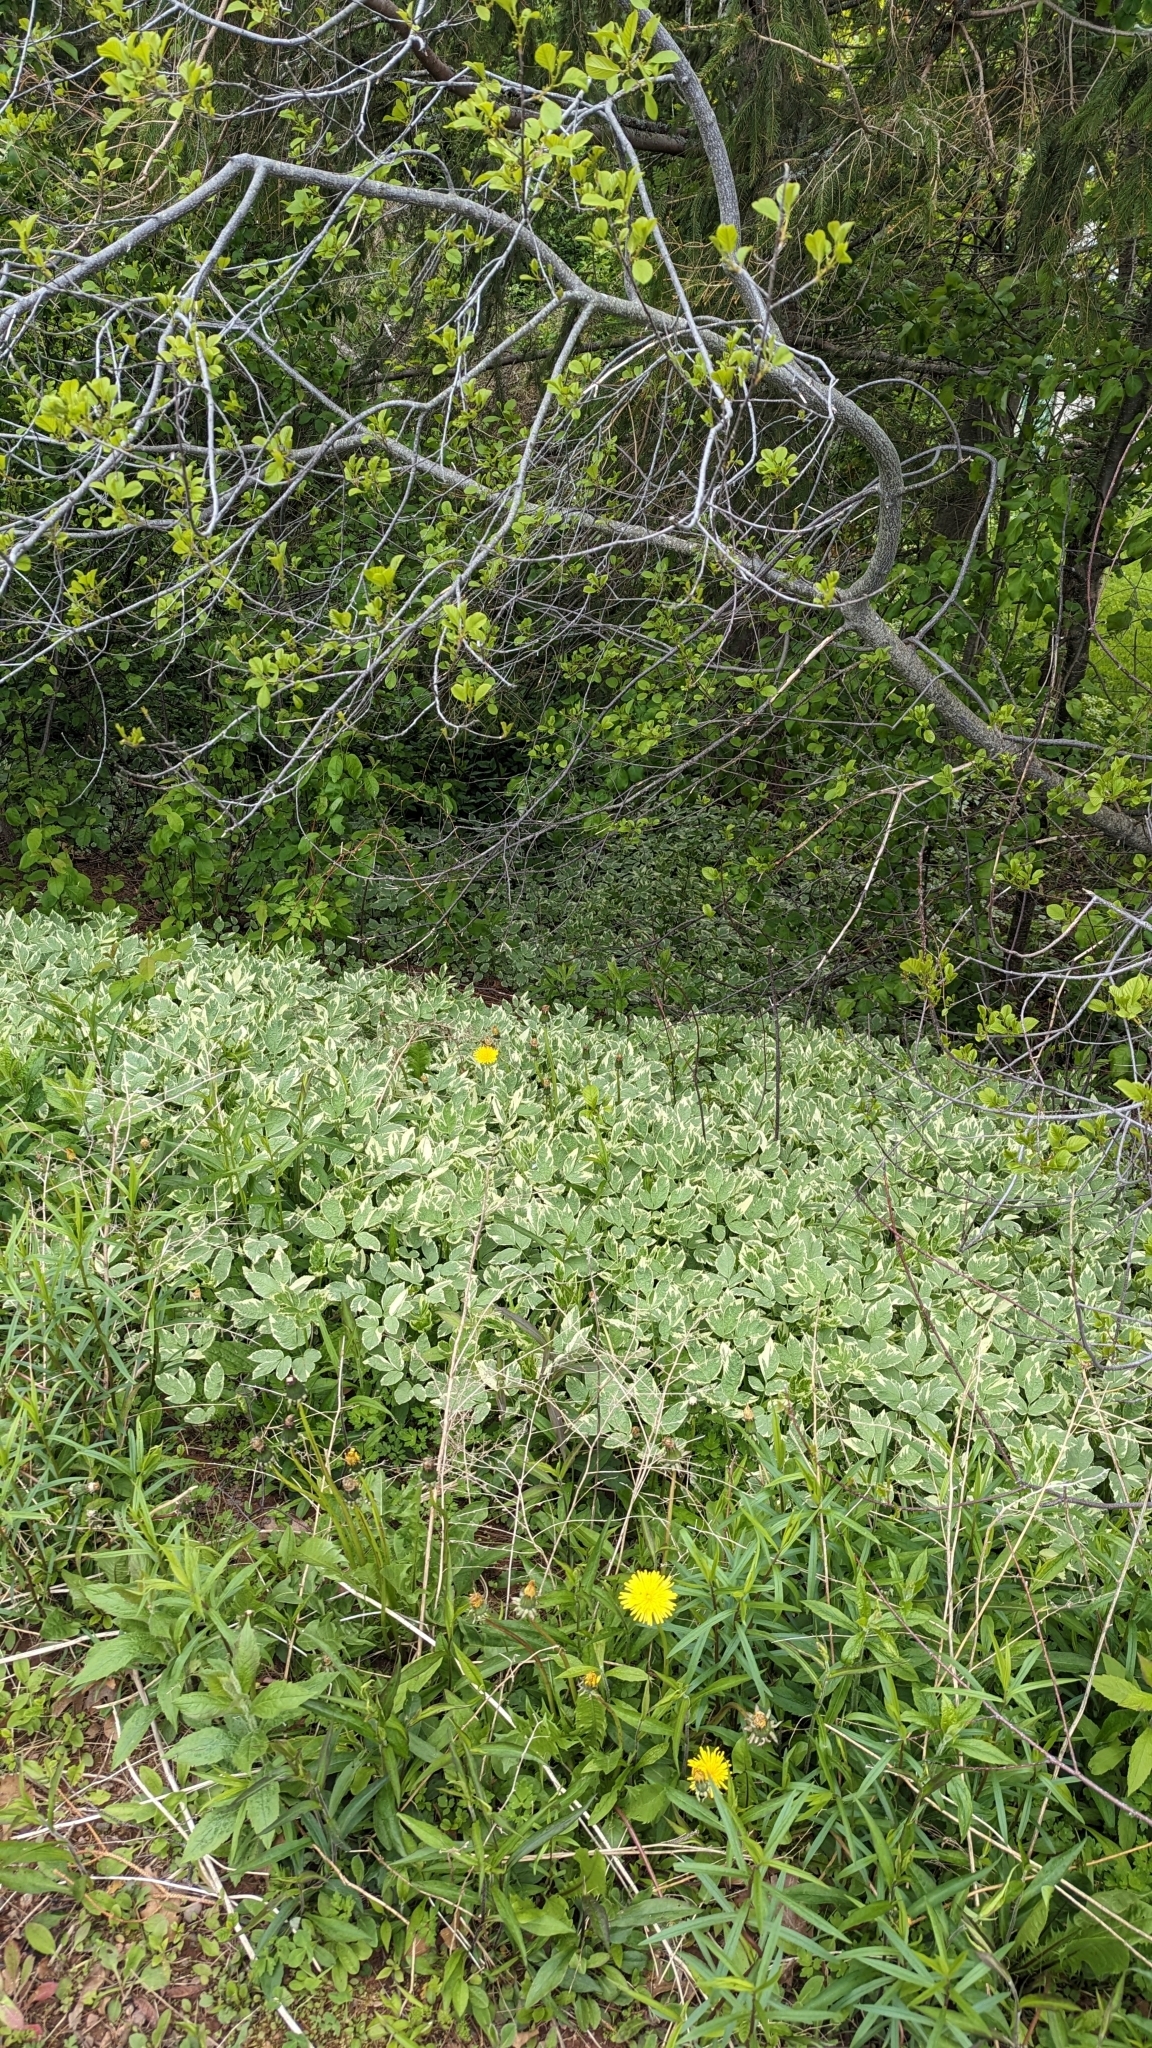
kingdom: Plantae
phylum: Tracheophyta
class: Magnoliopsida
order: Apiales
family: Apiaceae
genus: Aegopodium
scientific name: Aegopodium podagraria
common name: Ground-elder
